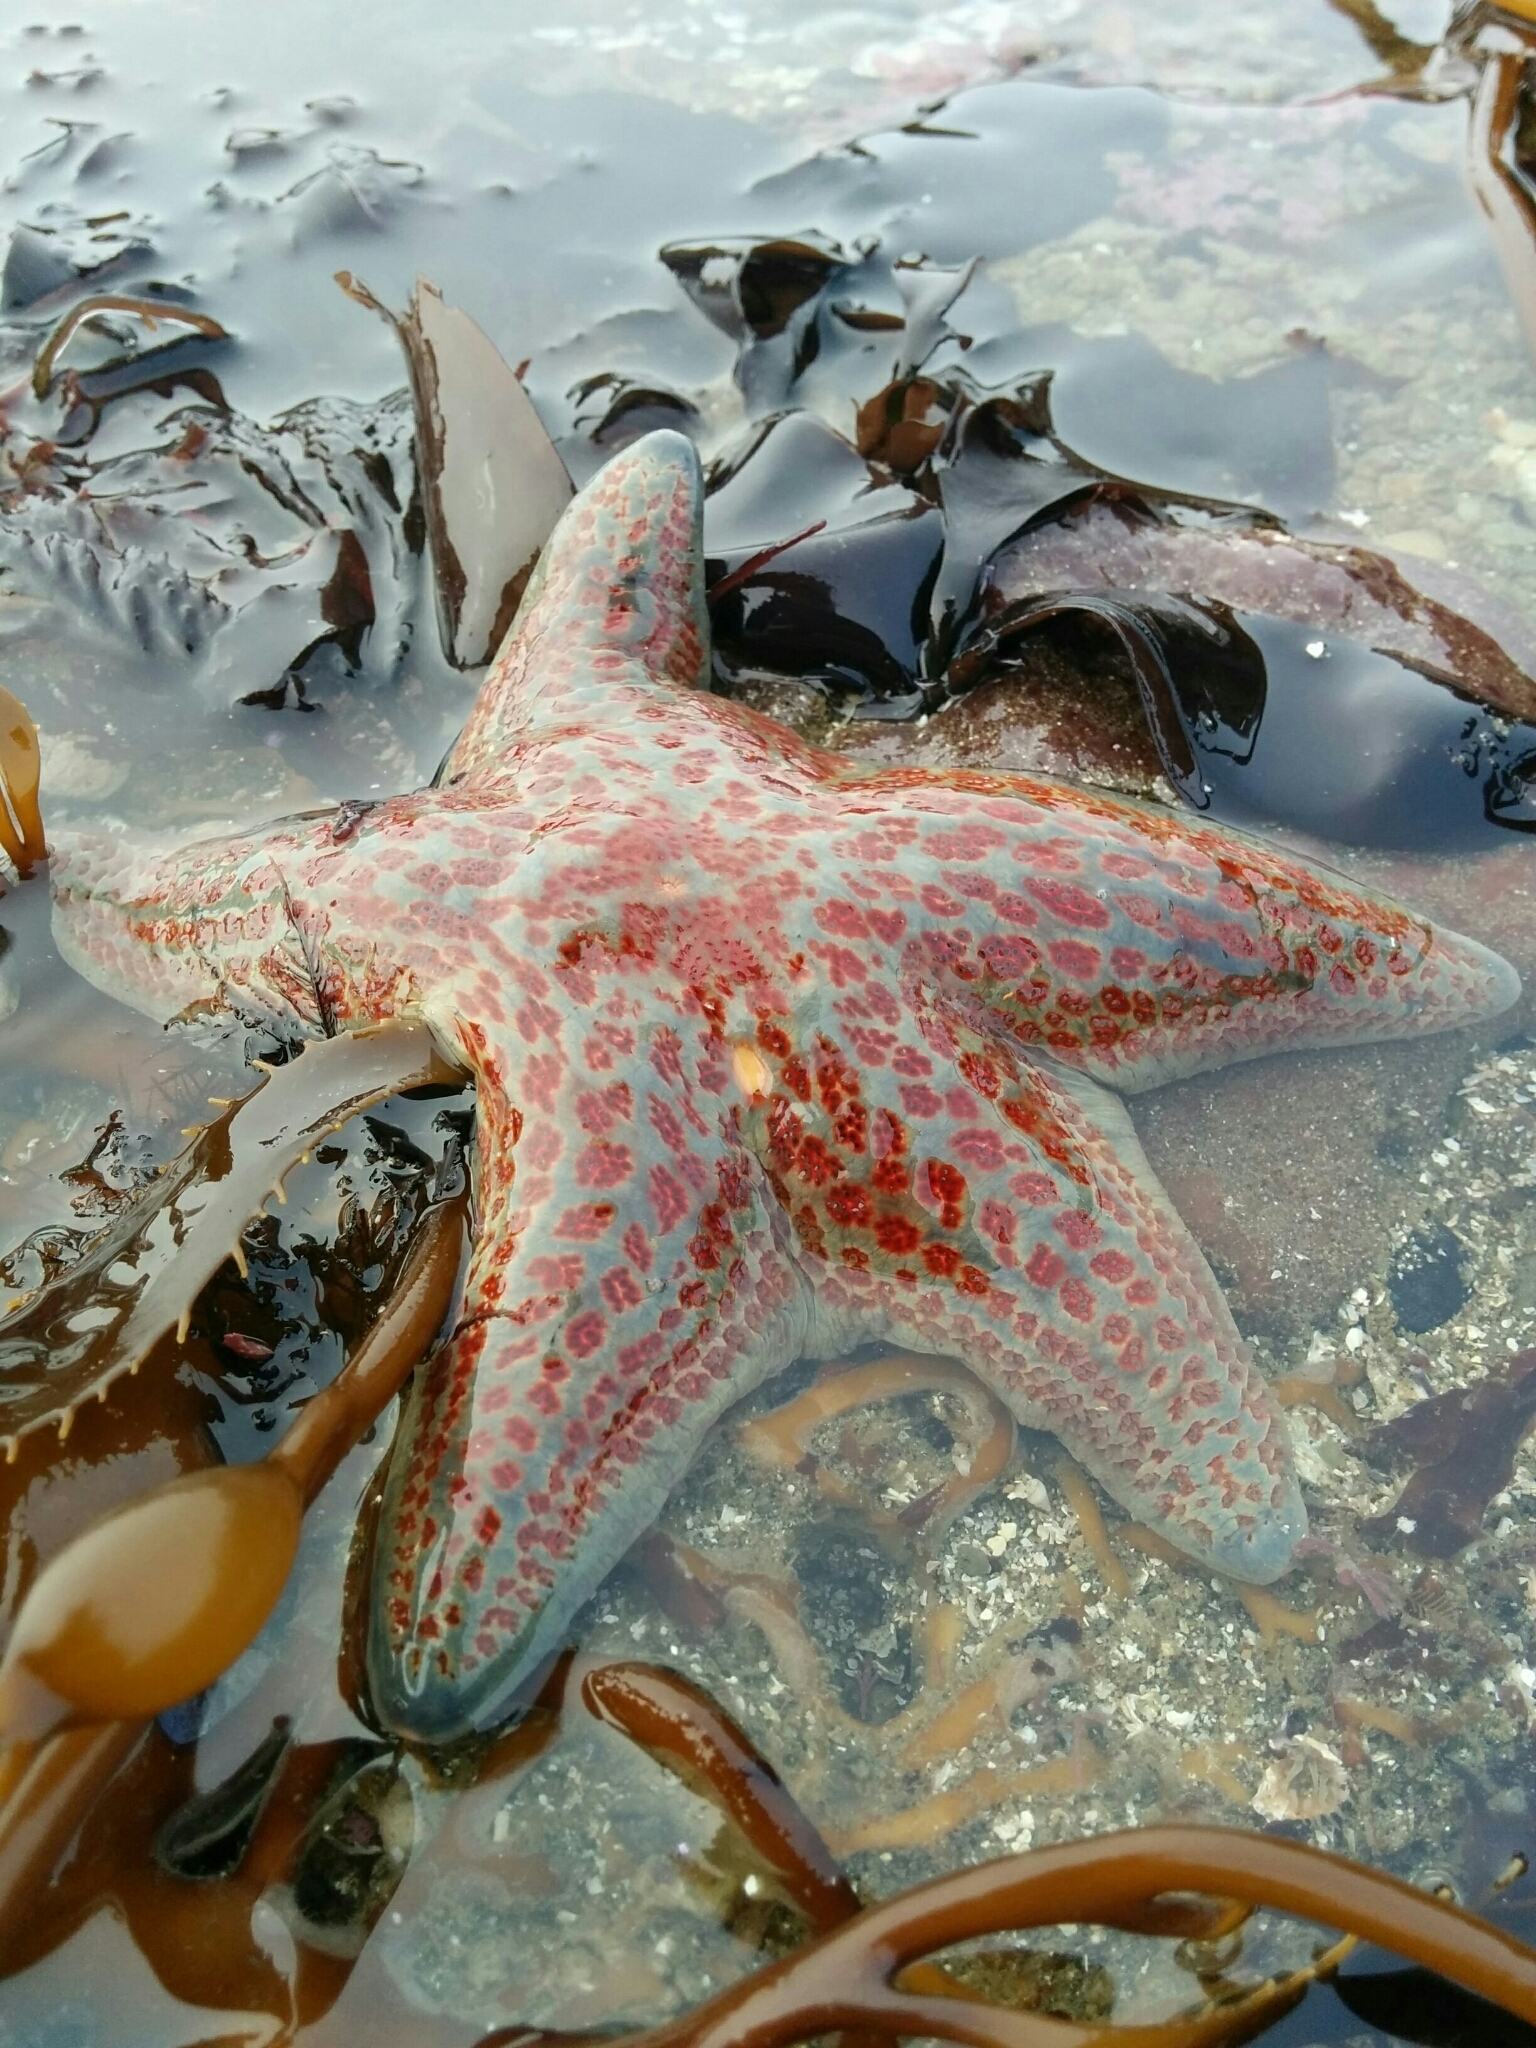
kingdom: Animalia
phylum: Echinodermata
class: Asteroidea
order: Valvatida
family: Asteropseidae
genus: Dermasterias
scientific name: Dermasterias imbricata
